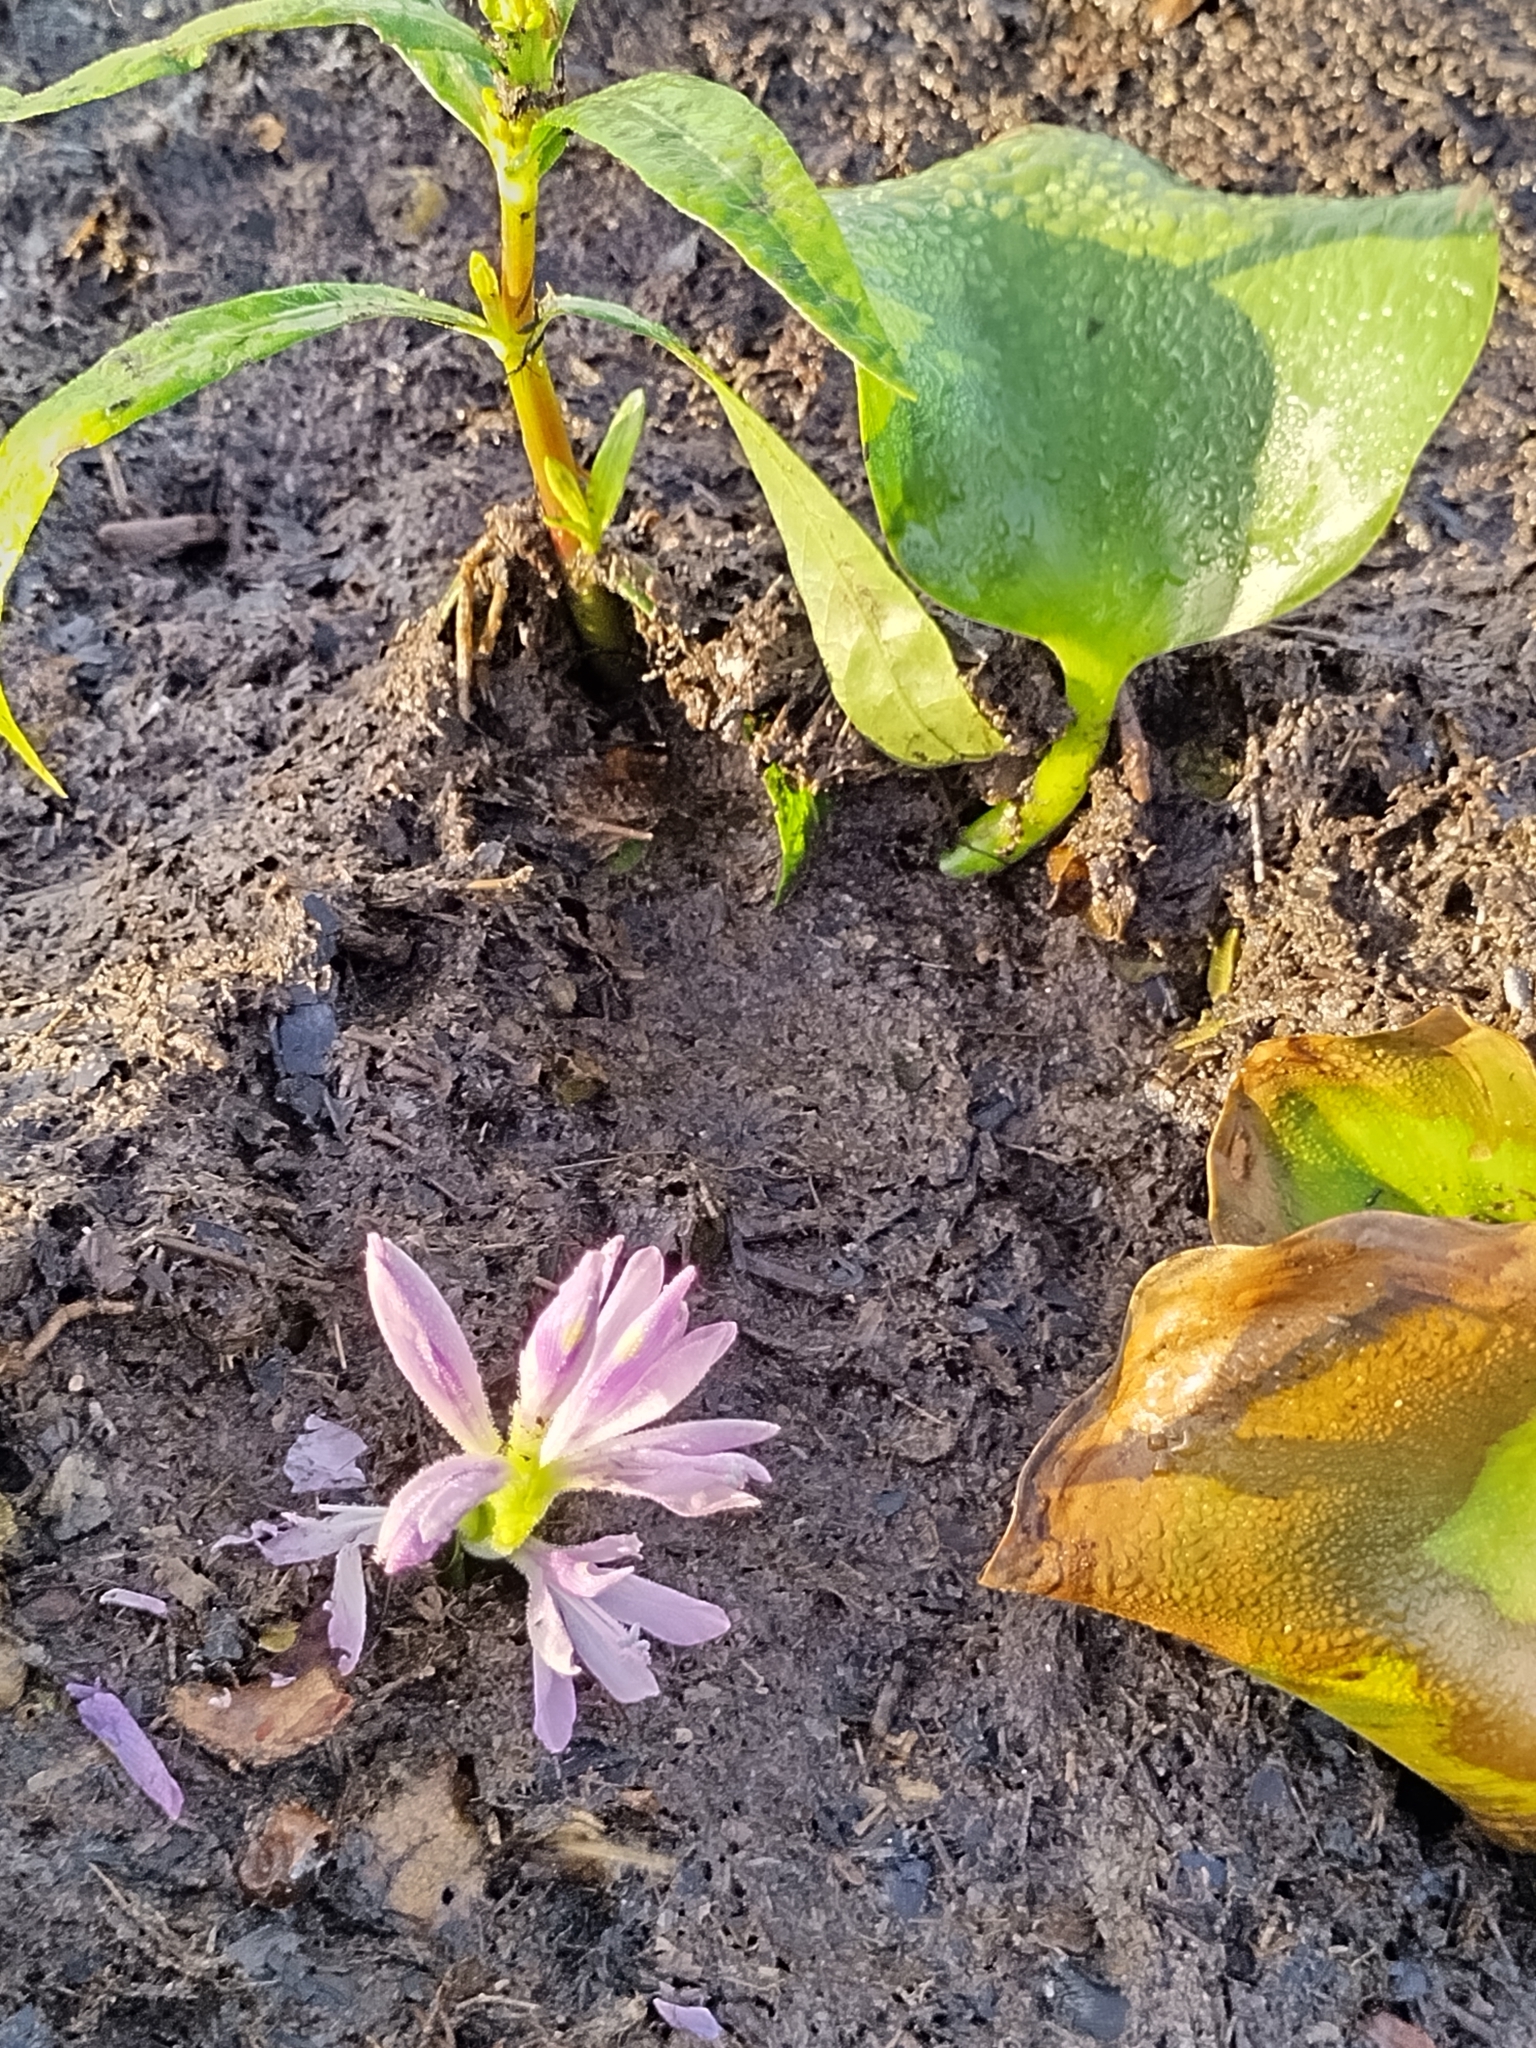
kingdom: Plantae
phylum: Tracheophyta
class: Liliopsida
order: Commelinales
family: Pontederiaceae
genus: Pontederia
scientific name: Pontederia crassipes
